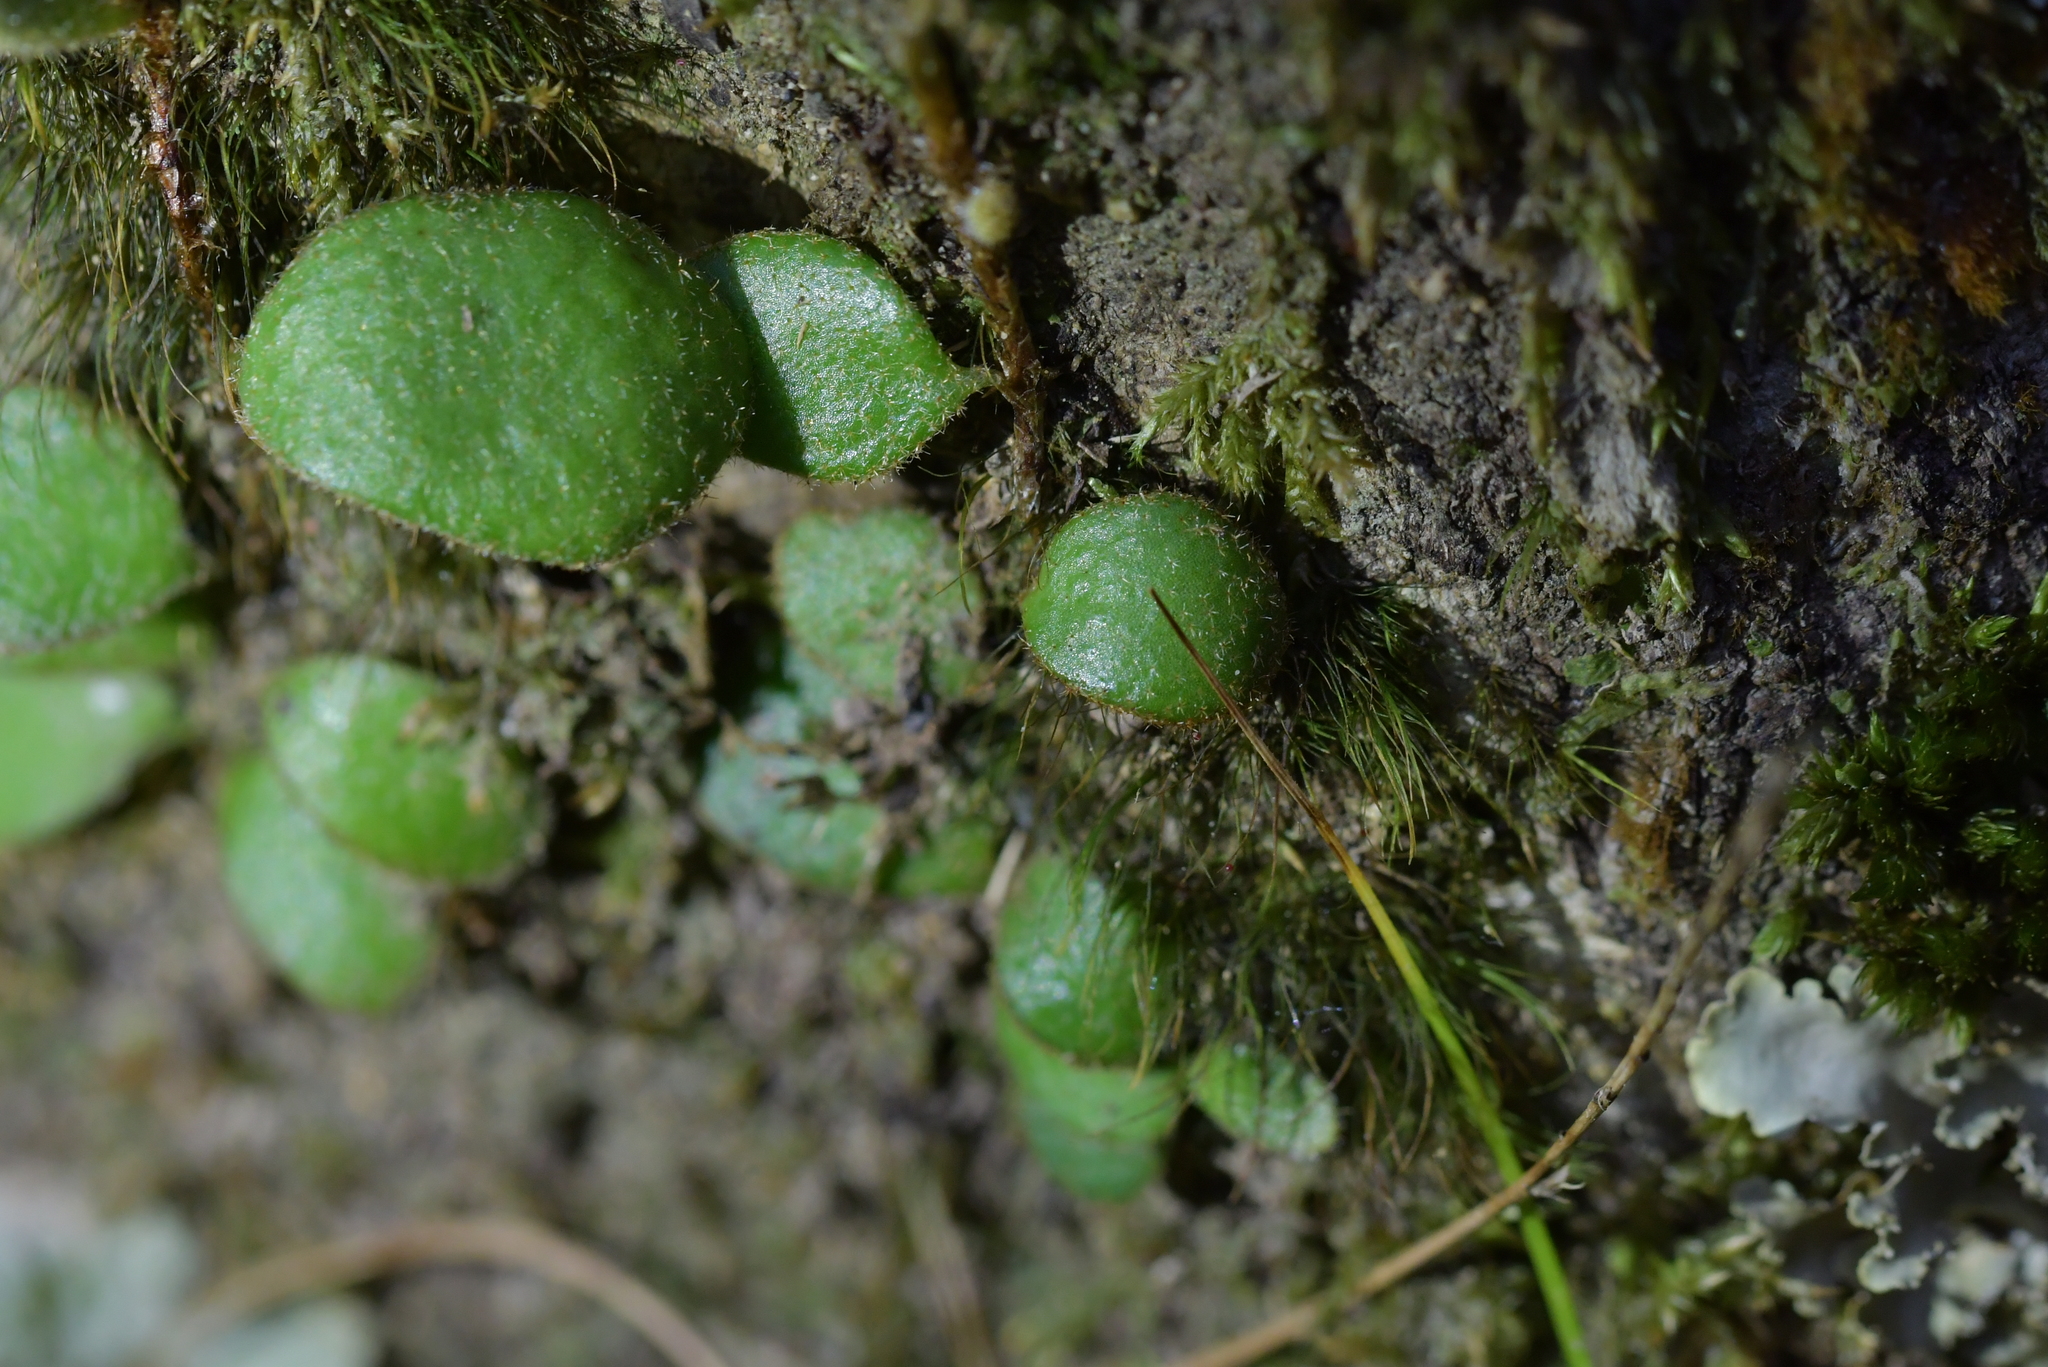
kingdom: Plantae
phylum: Tracheophyta
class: Polypodiopsida
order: Polypodiales
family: Polypodiaceae
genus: Pyrrosia
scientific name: Pyrrosia eleagnifolia
